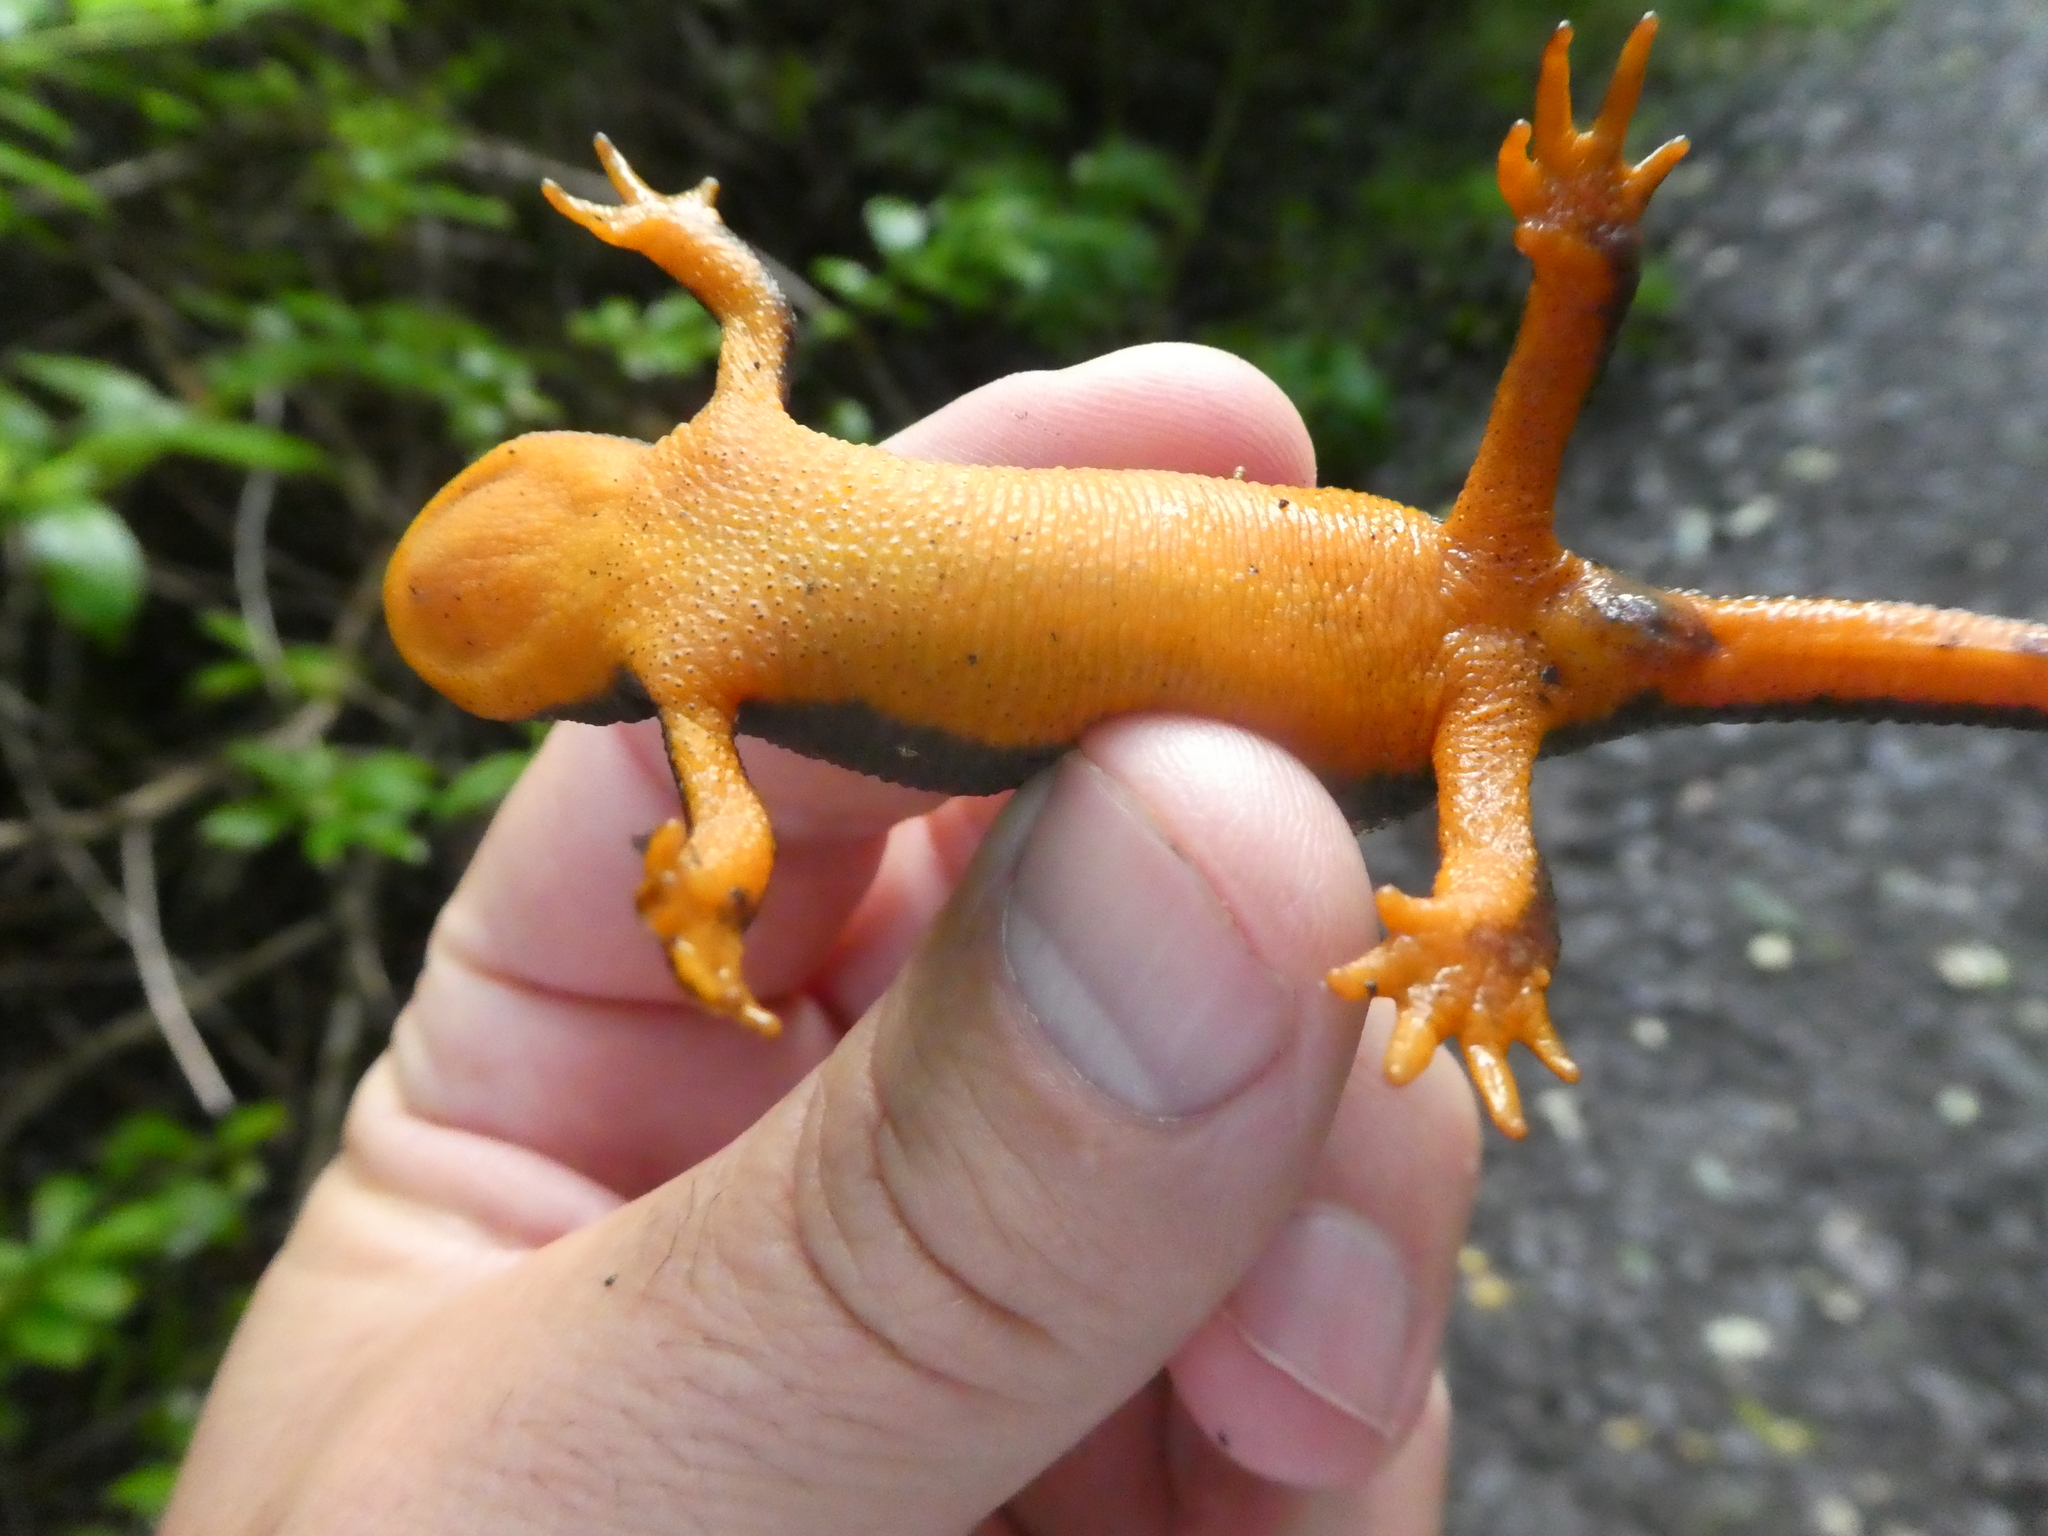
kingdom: Animalia
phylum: Chordata
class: Amphibia
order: Caudata
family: Salamandridae
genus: Taricha
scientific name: Taricha granulosa
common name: Roughskin newt
